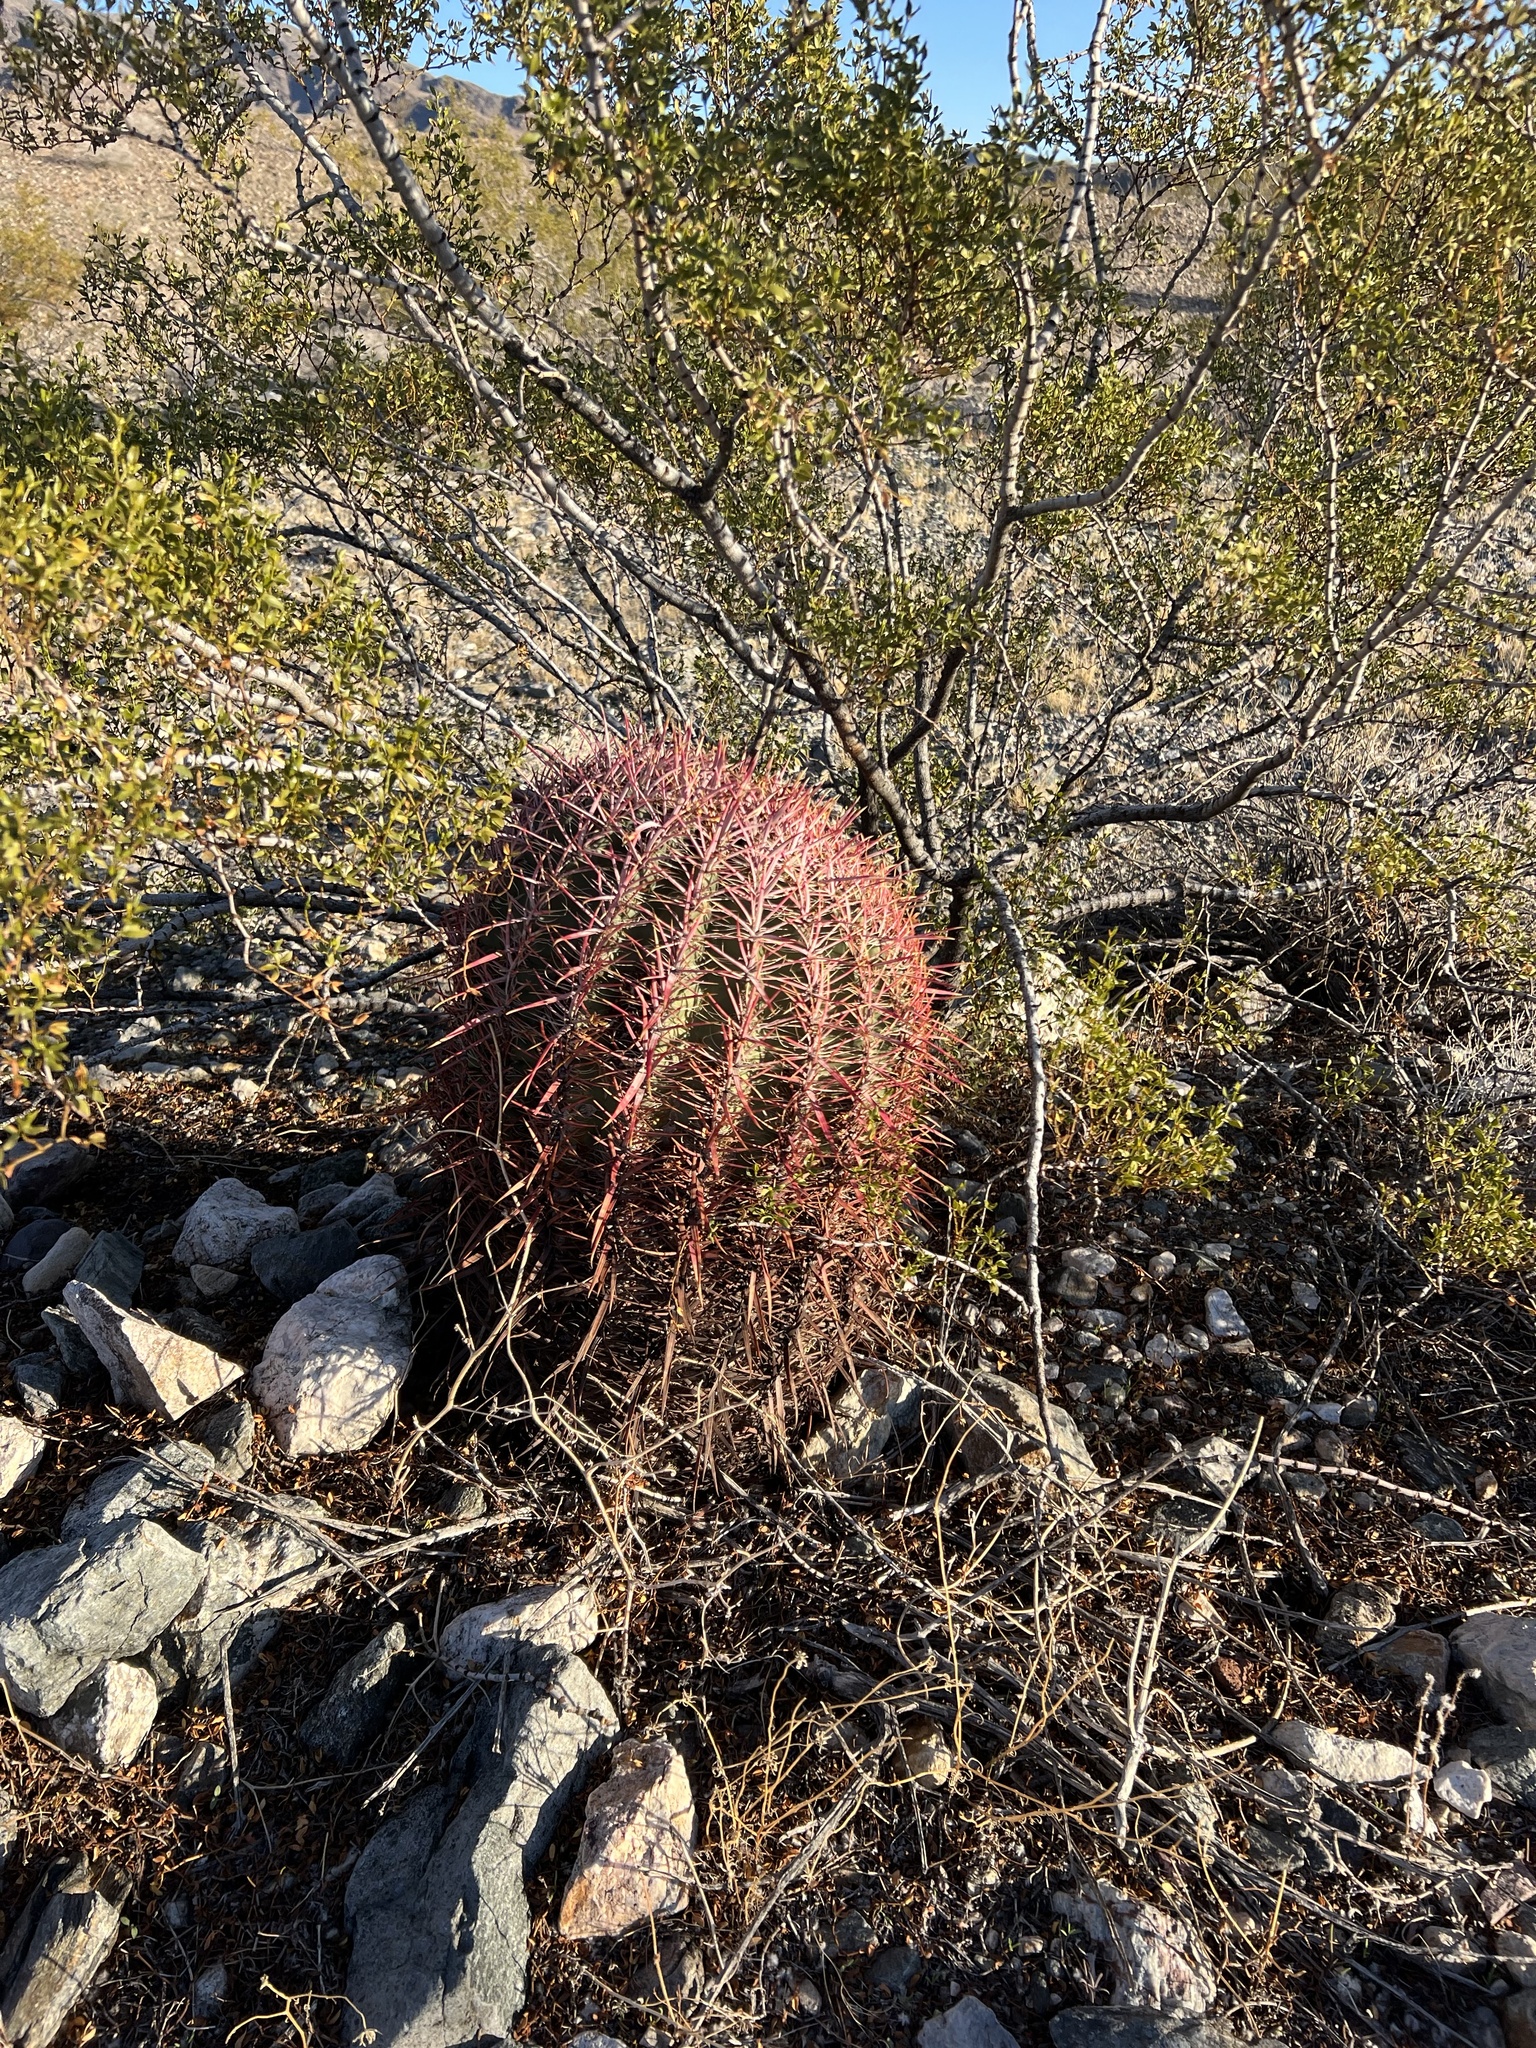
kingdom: Plantae
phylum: Tracheophyta
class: Magnoliopsida
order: Caryophyllales
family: Cactaceae
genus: Ferocactus
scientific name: Ferocactus cylindraceus
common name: California barrel cactus
